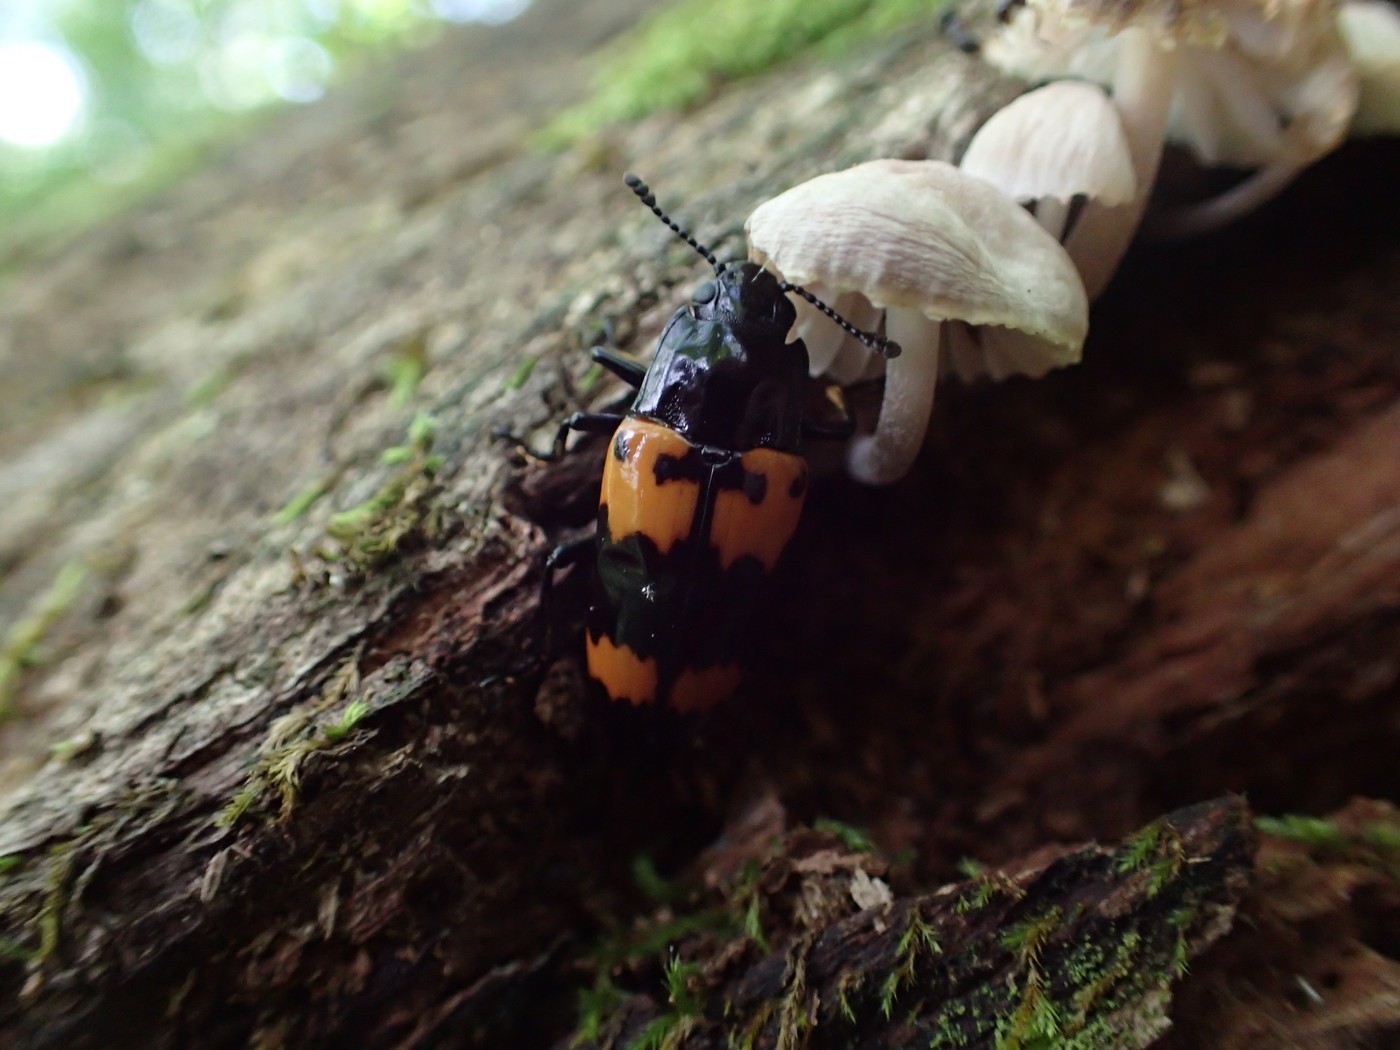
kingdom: Animalia
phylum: Arthropoda
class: Insecta
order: Coleoptera
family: Erotylidae
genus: Megalodacne
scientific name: Megalodacne heros
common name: Pleasing fungus beetle
